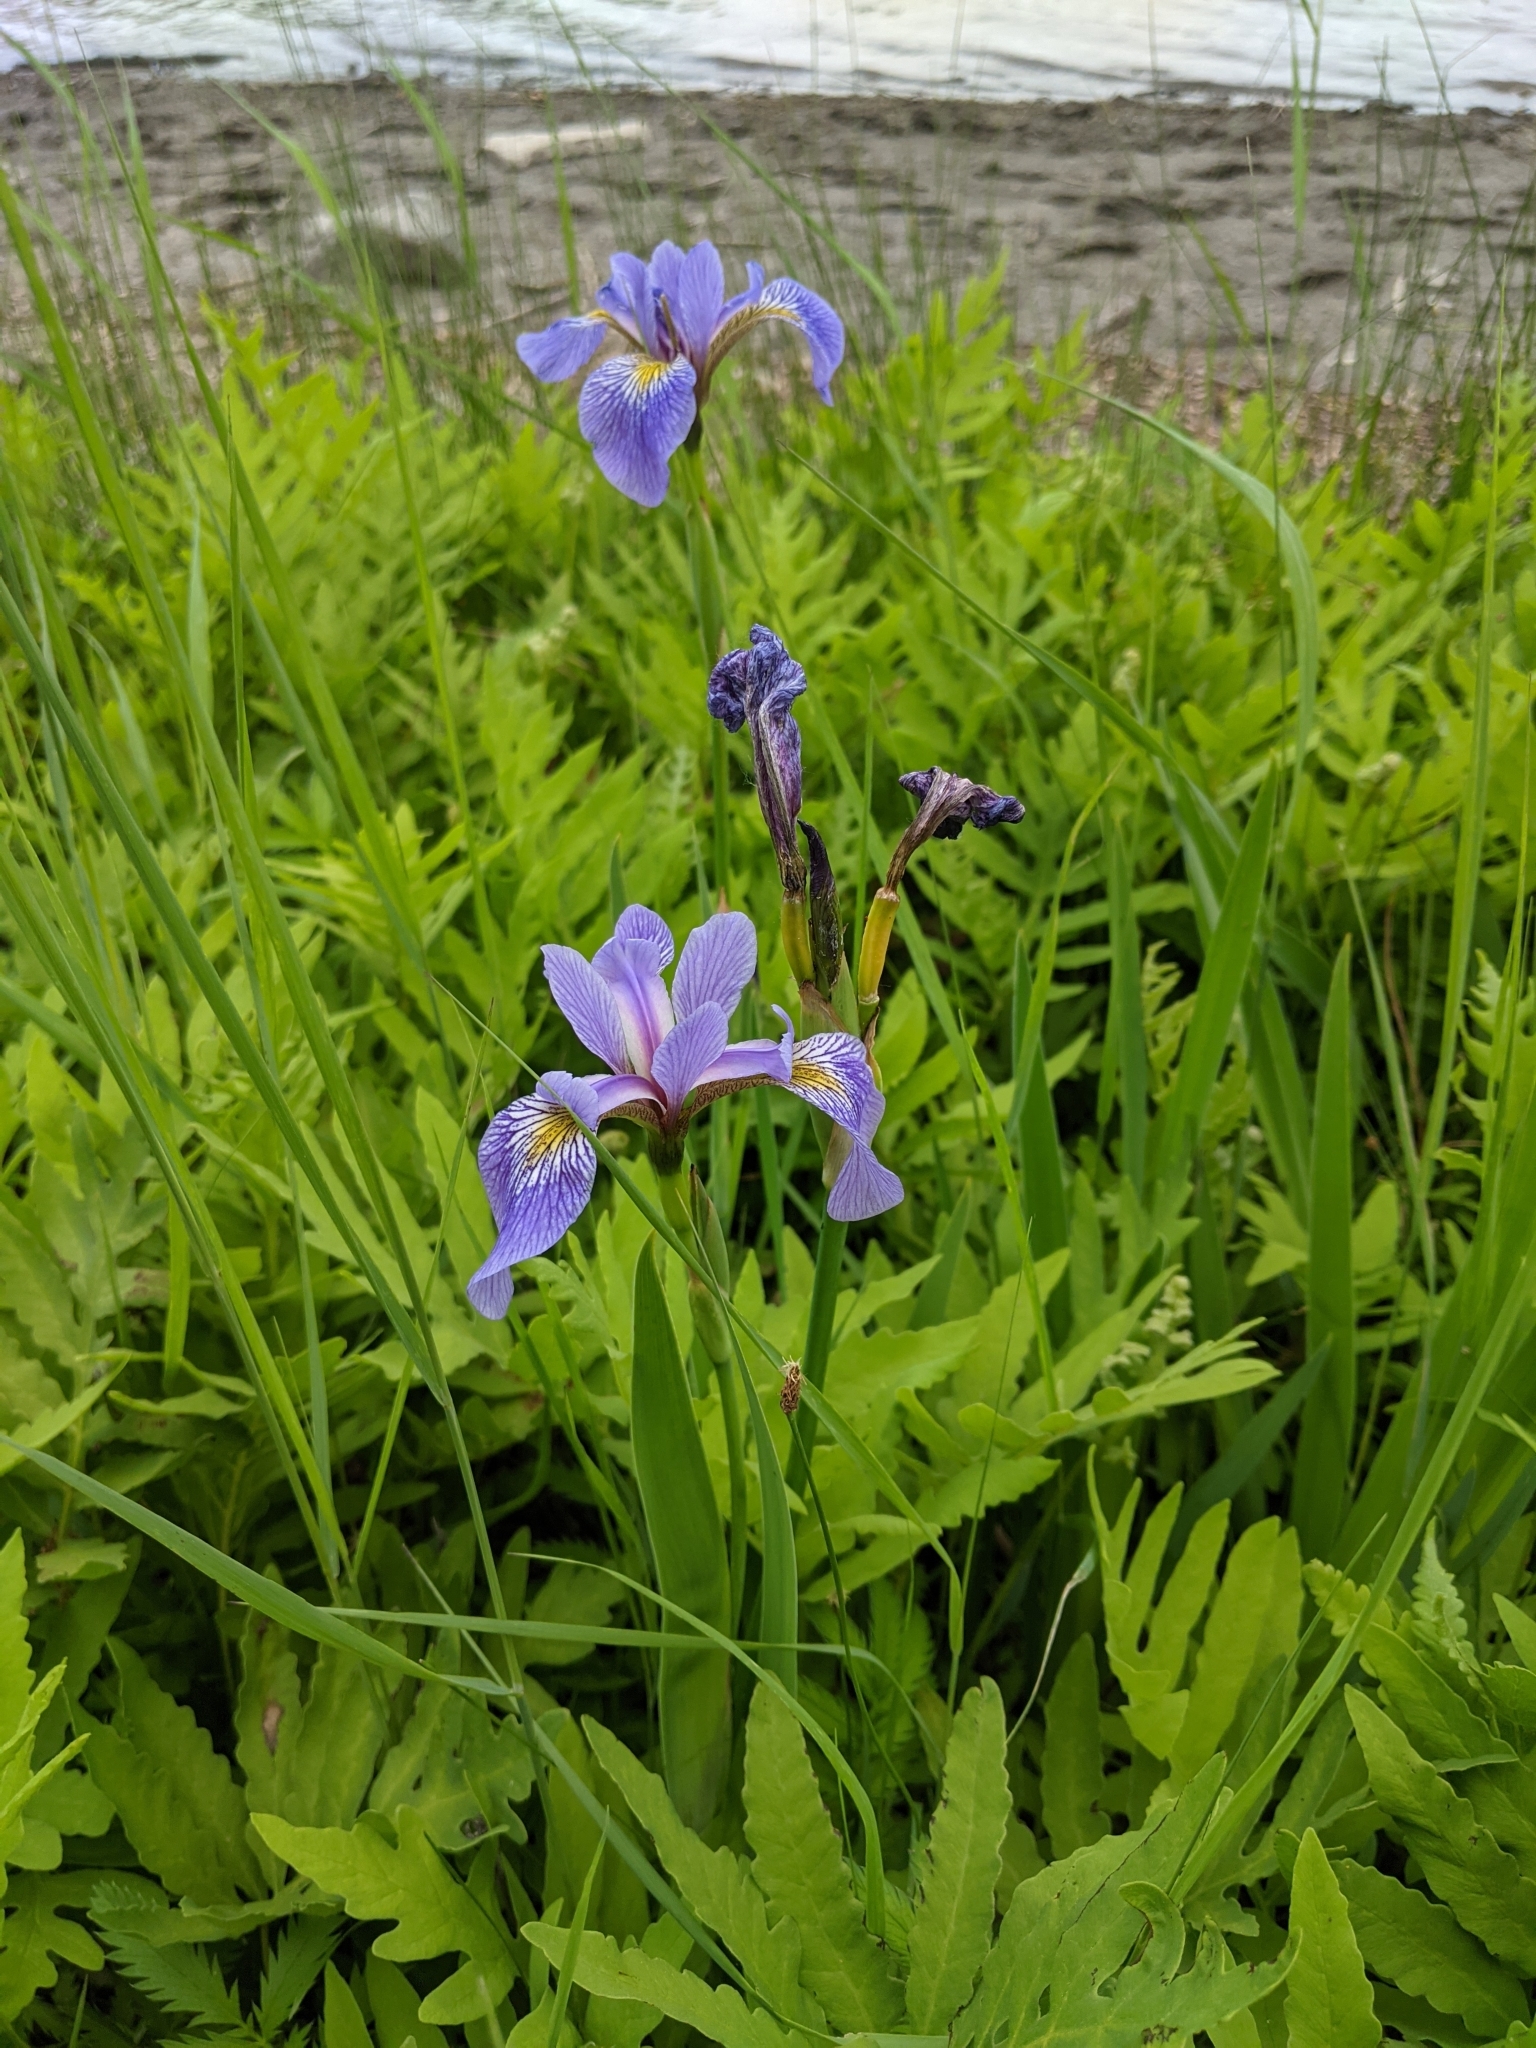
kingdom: Plantae
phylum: Tracheophyta
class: Liliopsida
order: Asparagales
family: Iridaceae
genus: Iris
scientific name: Iris versicolor
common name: Purple iris
